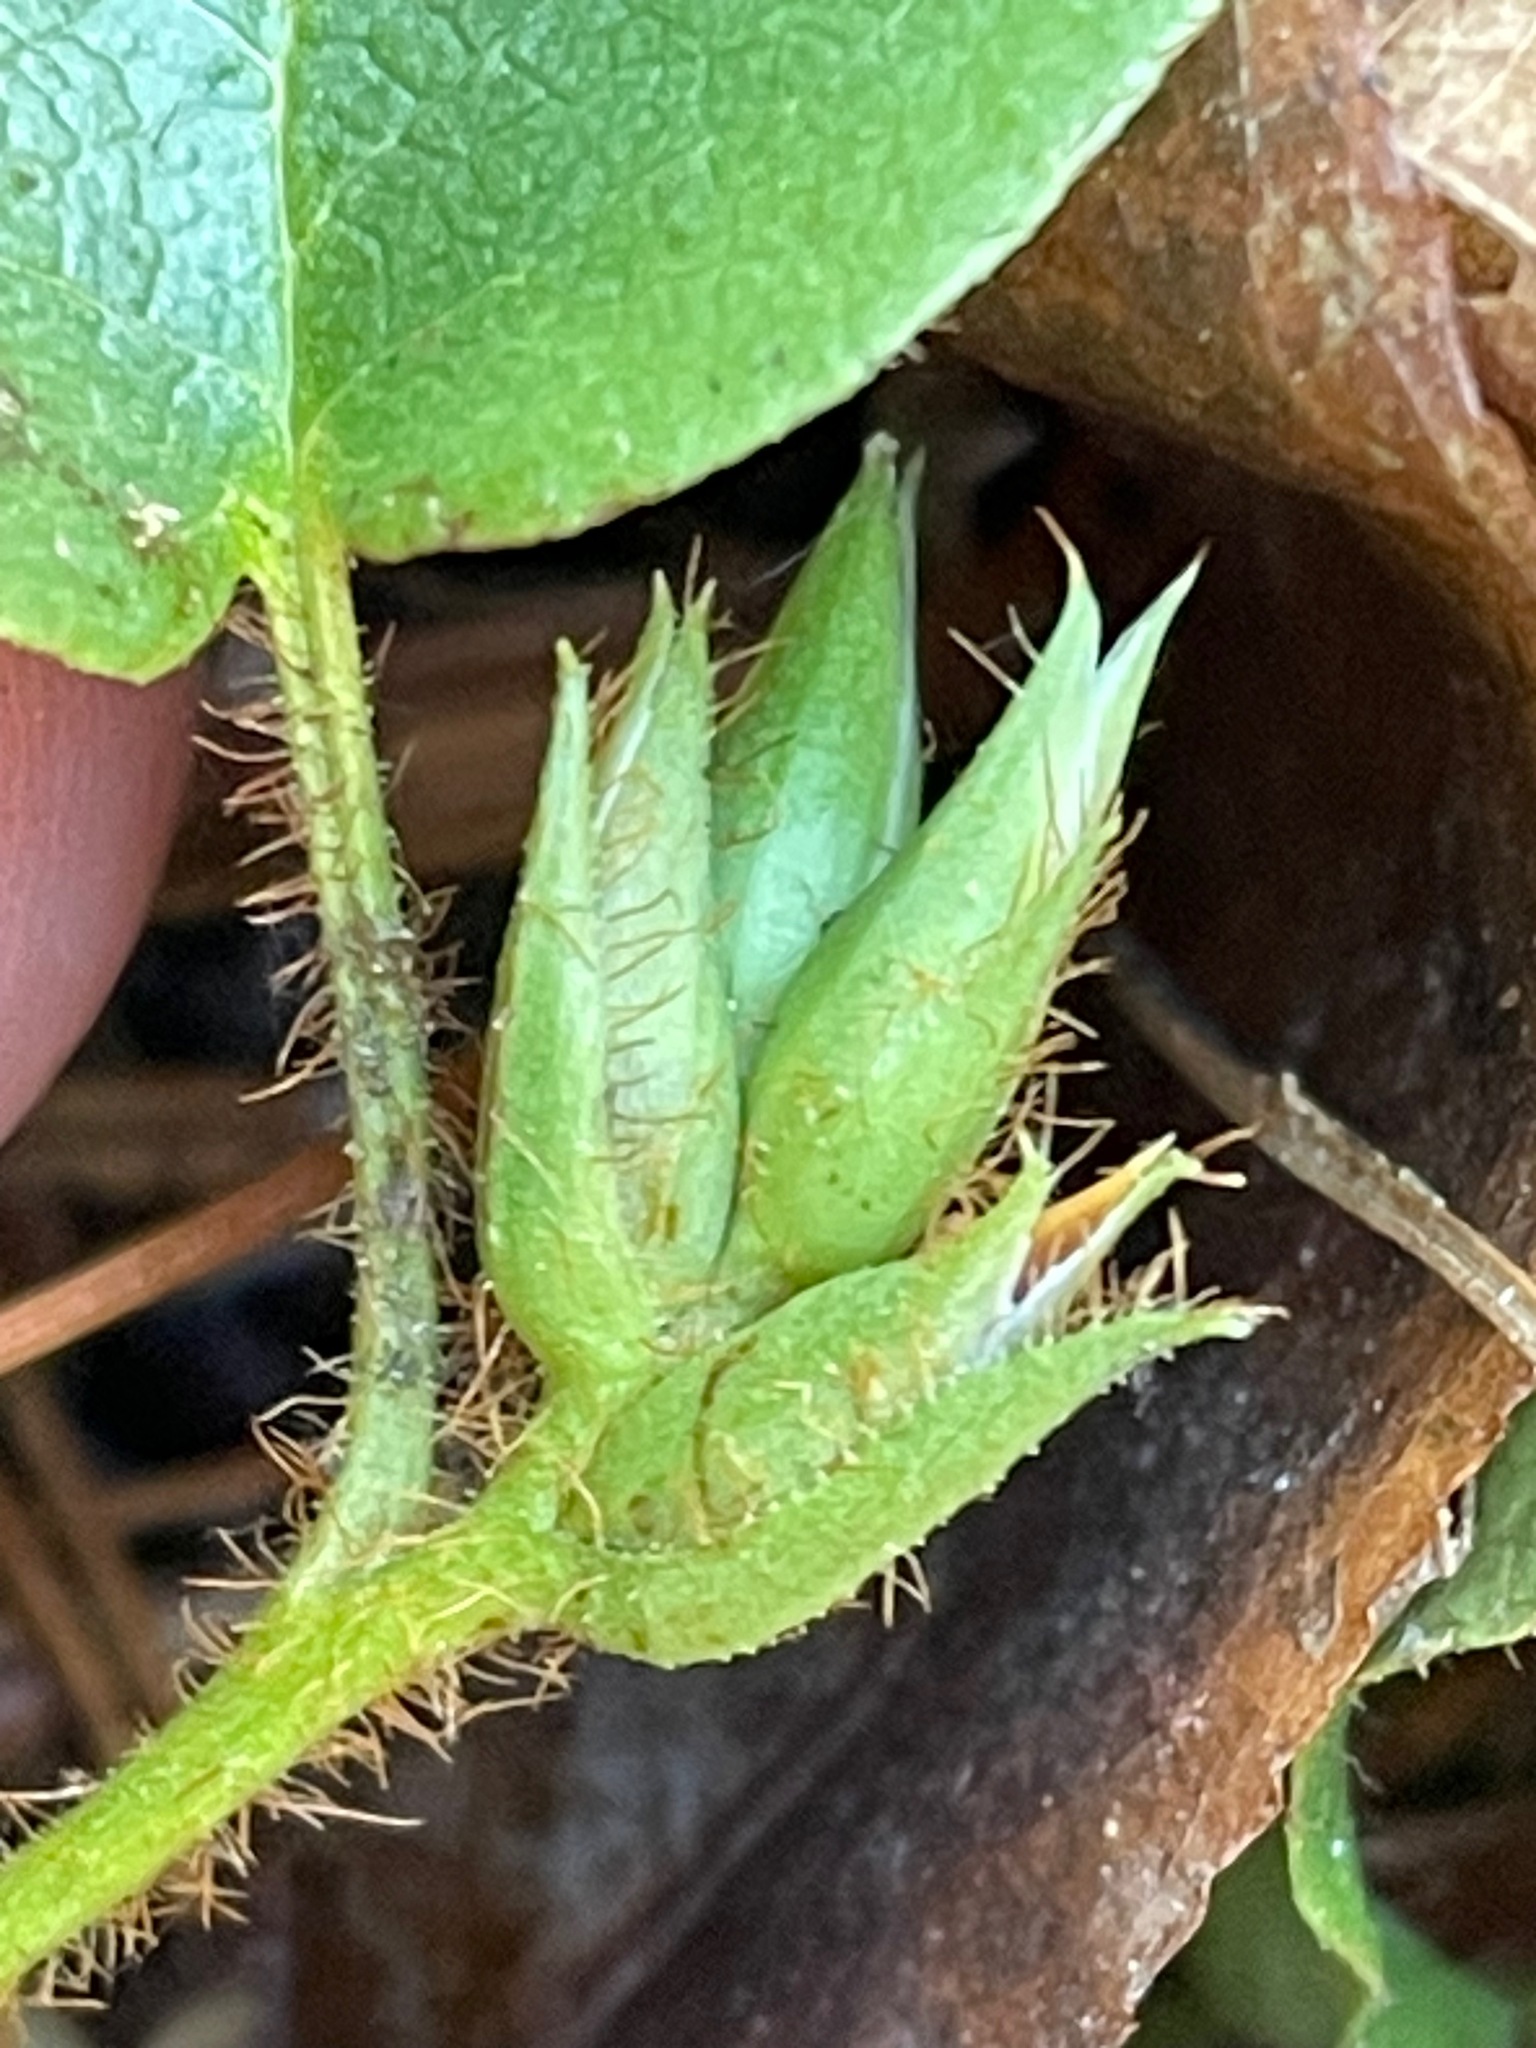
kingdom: Plantae
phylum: Tracheophyta
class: Magnoliopsida
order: Ericales
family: Ericaceae
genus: Epigaea
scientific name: Epigaea repens
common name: Gravelroot
